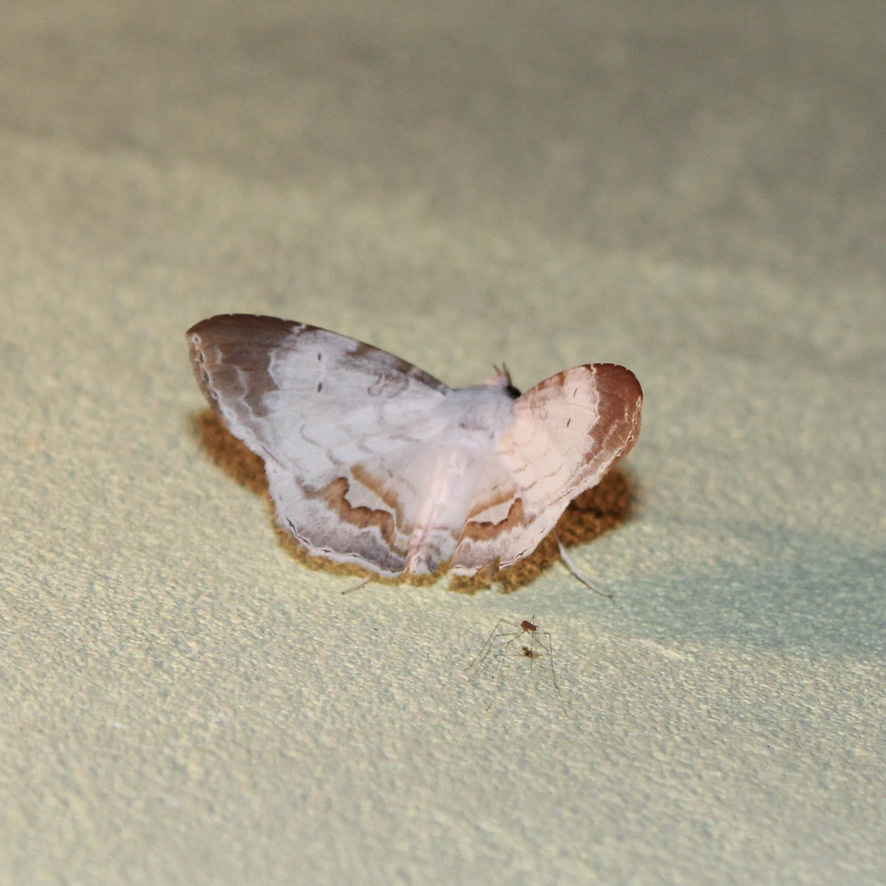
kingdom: Animalia
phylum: Arthropoda
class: Insecta
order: Lepidoptera
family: Erebidae
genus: Macrodes
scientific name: Macrodes columbalis
